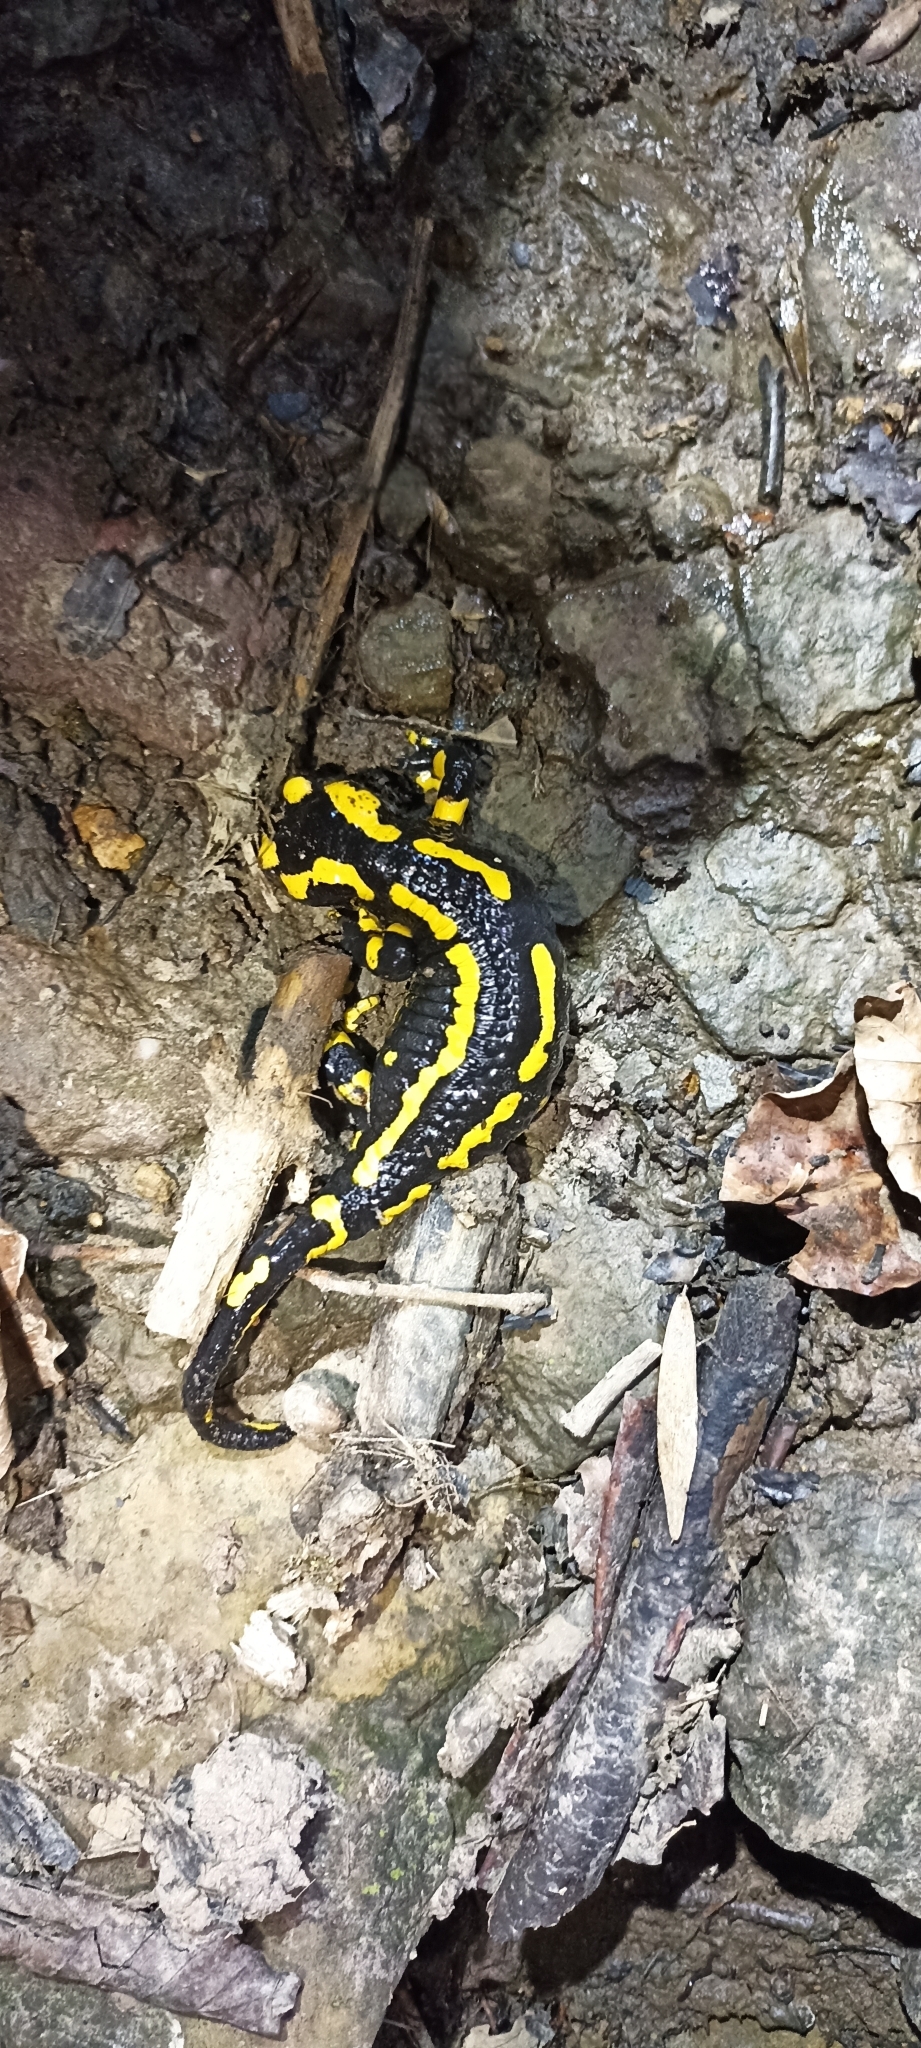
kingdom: Animalia
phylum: Chordata
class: Amphibia
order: Caudata
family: Salamandridae
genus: Salamandra
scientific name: Salamandra salamandra
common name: Fire salamander
